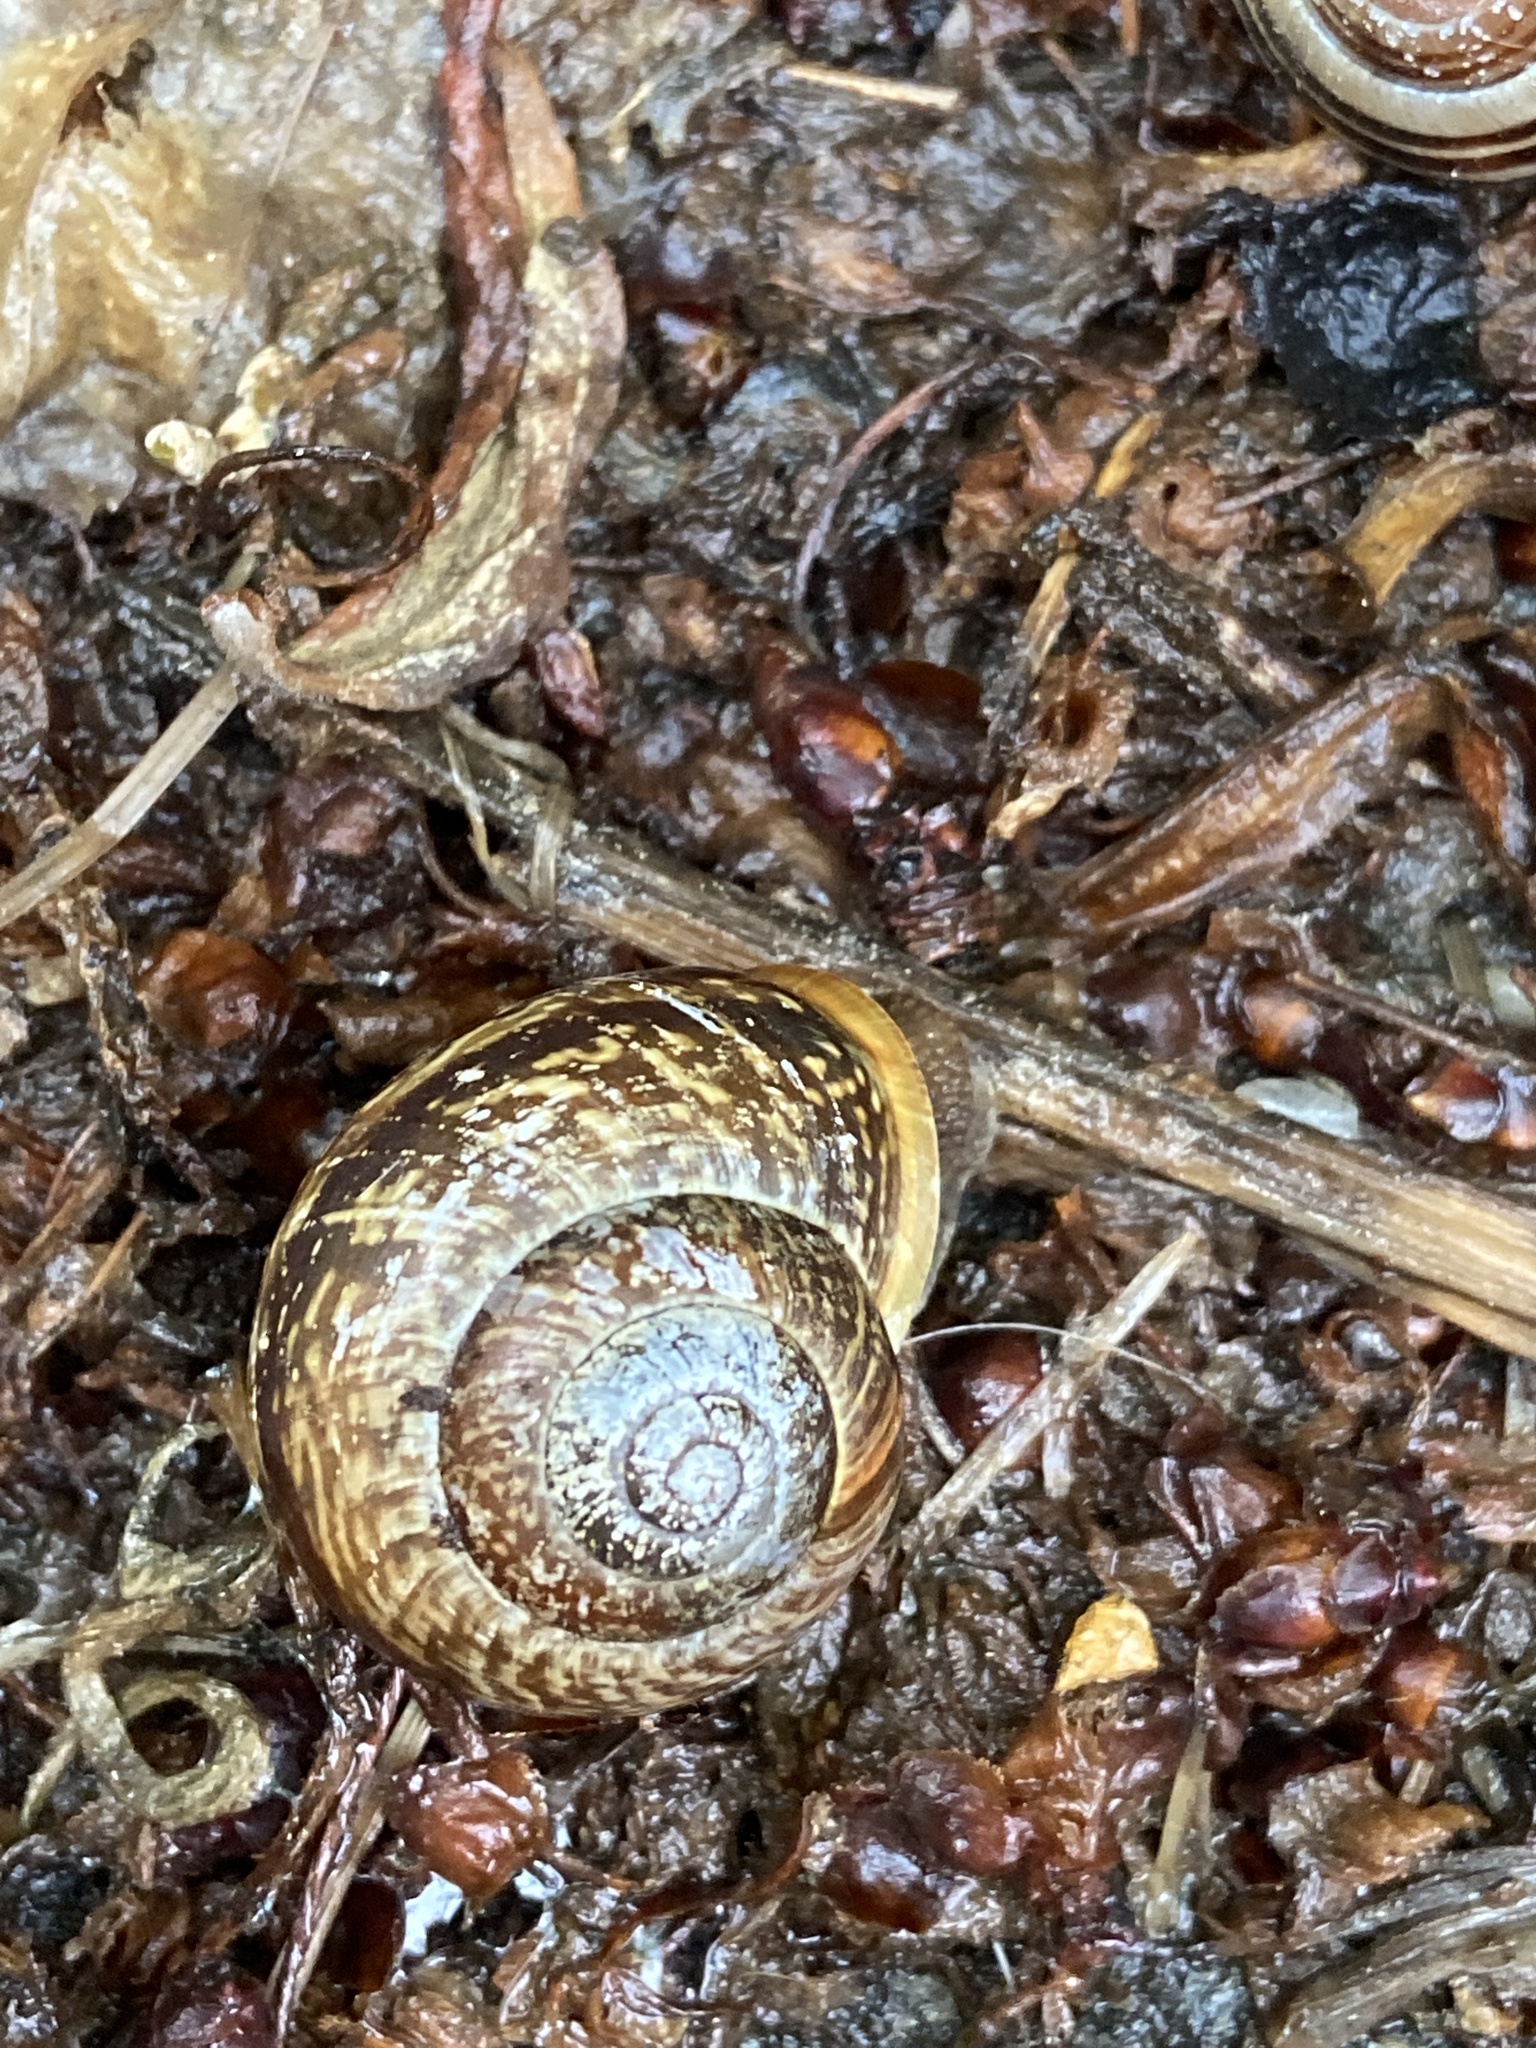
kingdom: Animalia
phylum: Mollusca
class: Gastropoda
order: Stylommatophora
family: Helicidae
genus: Arianta
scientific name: Arianta arbustorum
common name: Copse snail
